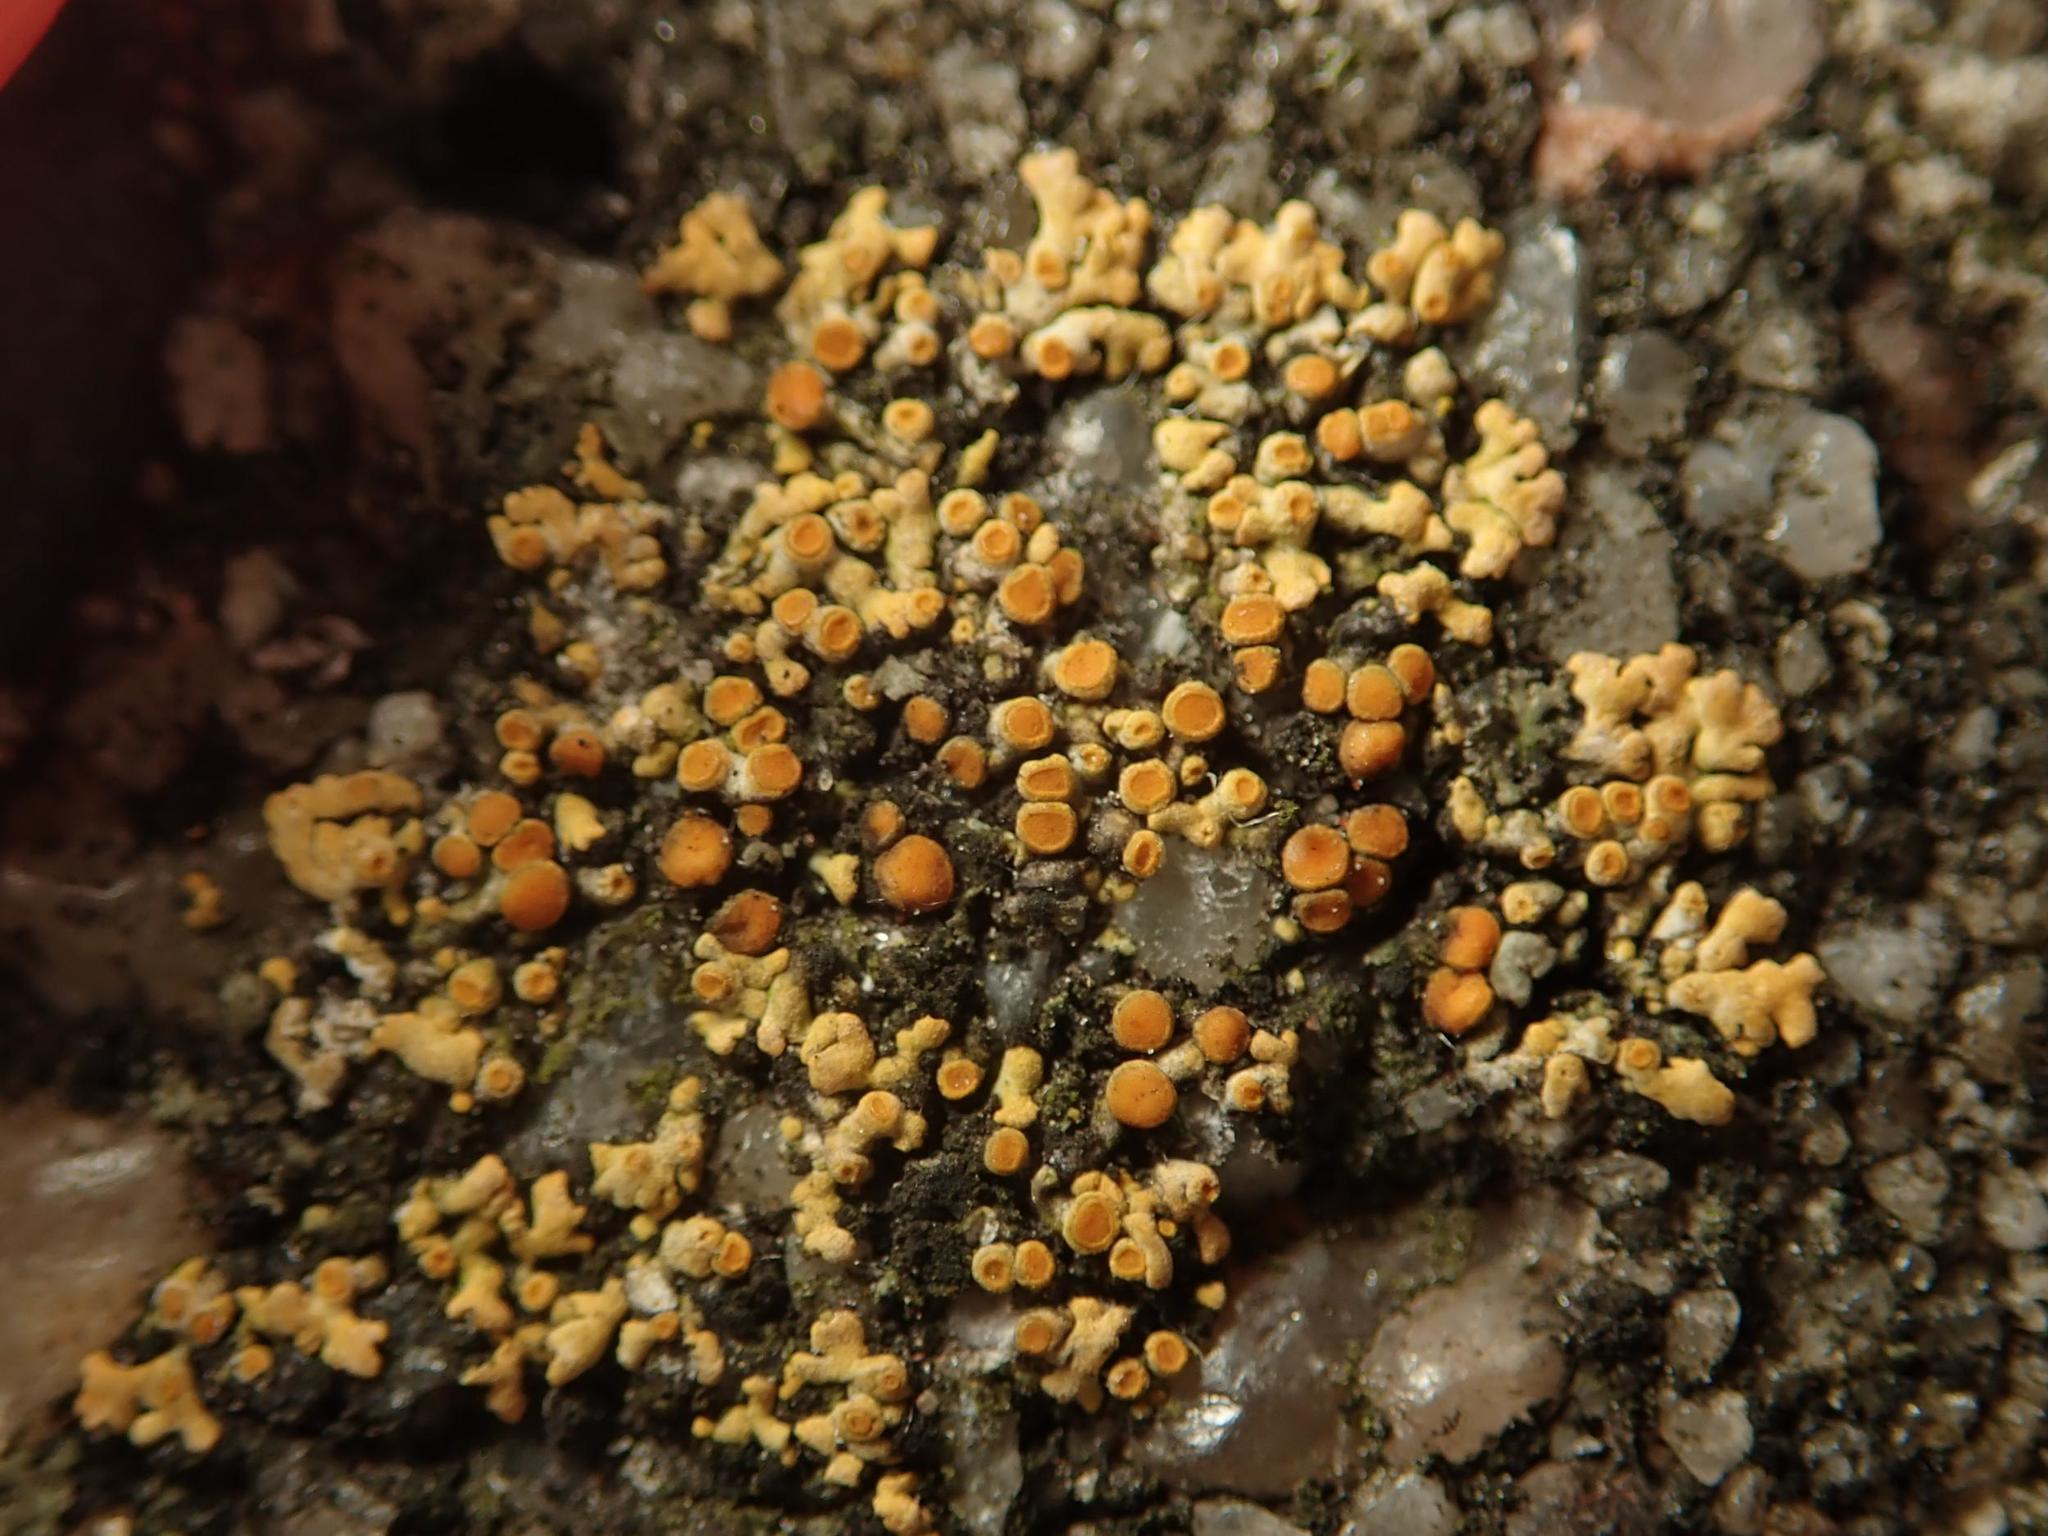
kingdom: Fungi
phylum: Ascomycota
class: Lecanoromycetes
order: Teloschistales
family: Teloschistaceae
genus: Calogaya
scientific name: Calogaya saxicola
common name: Rock jewel lichen
